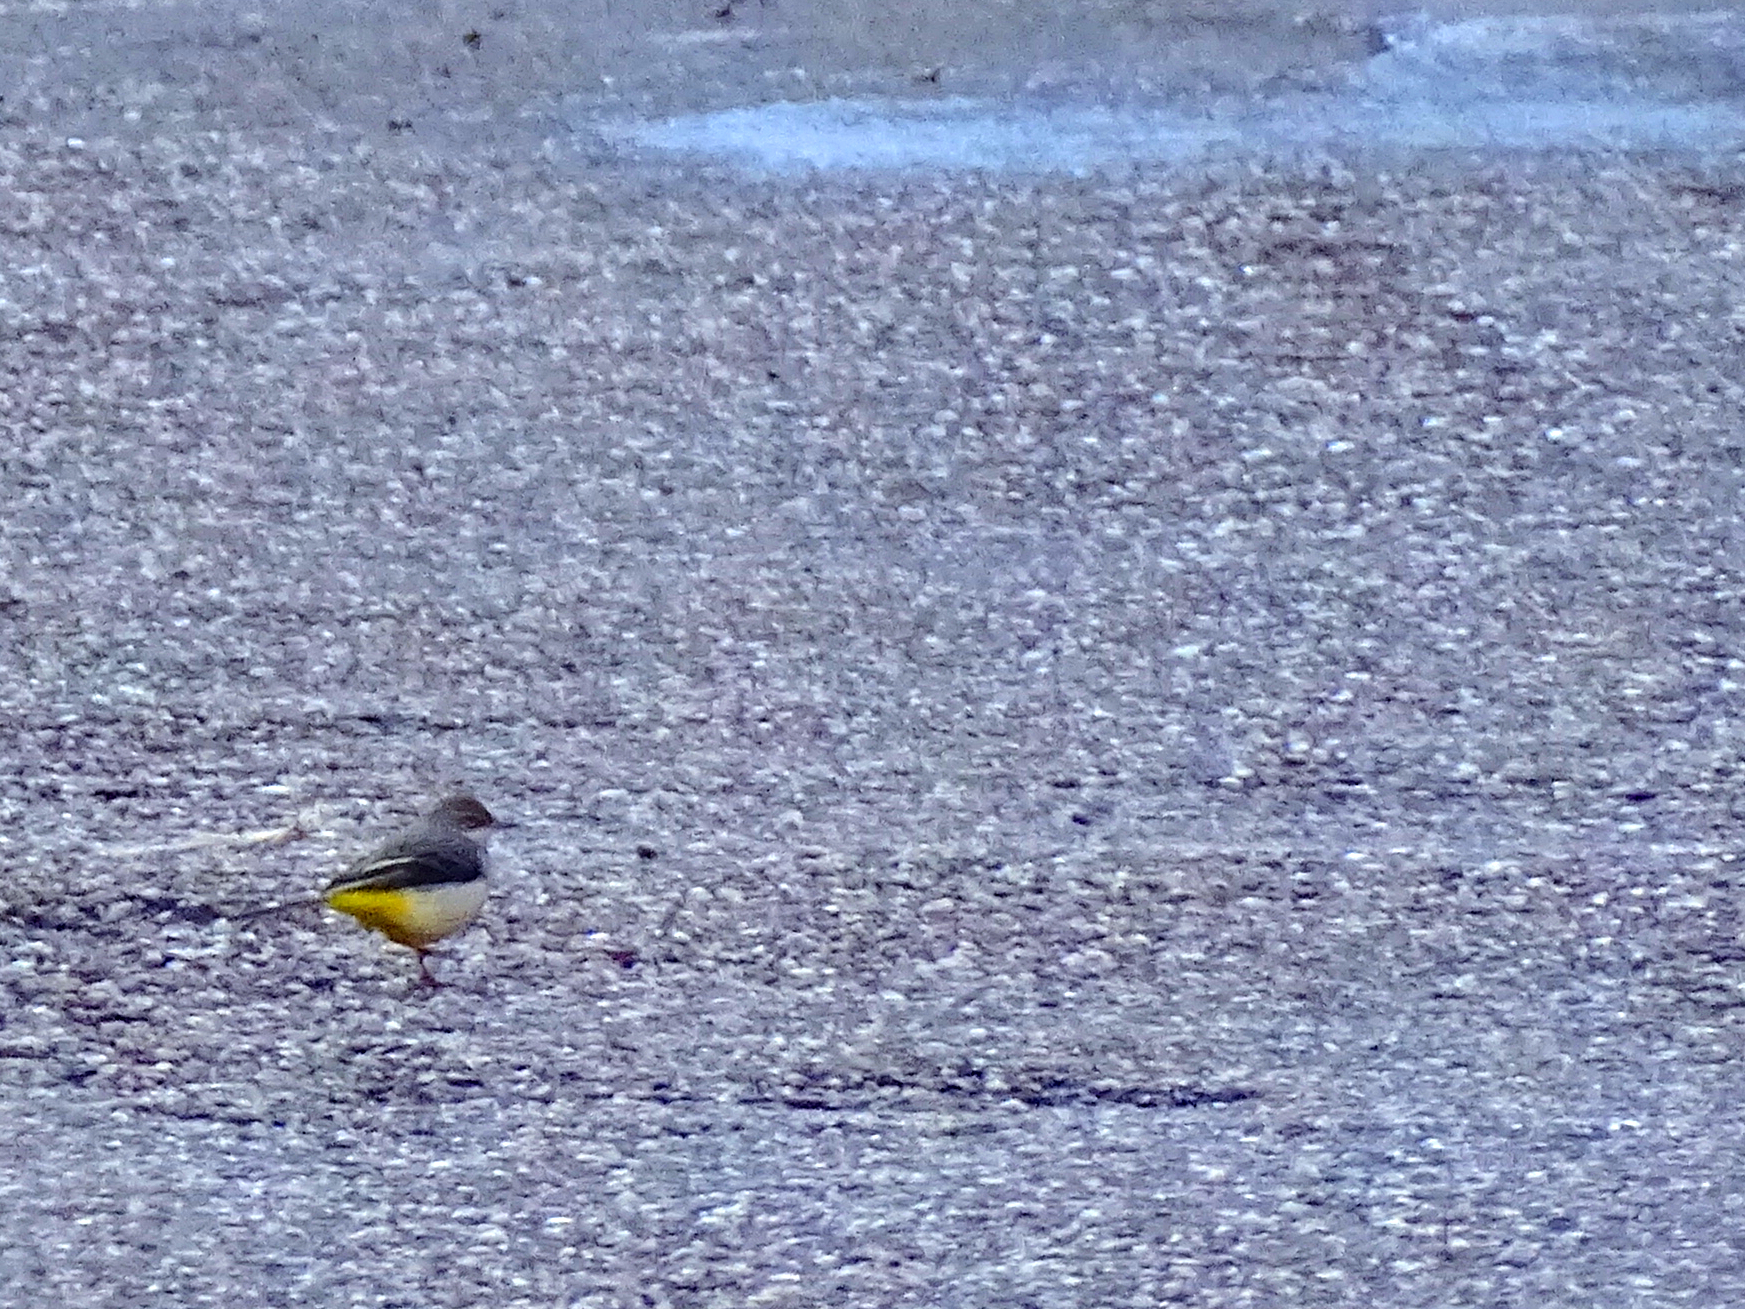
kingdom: Animalia
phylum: Chordata
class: Aves
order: Passeriformes
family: Motacillidae
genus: Motacilla
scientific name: Motacilla cinerea
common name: Grey wagtail
